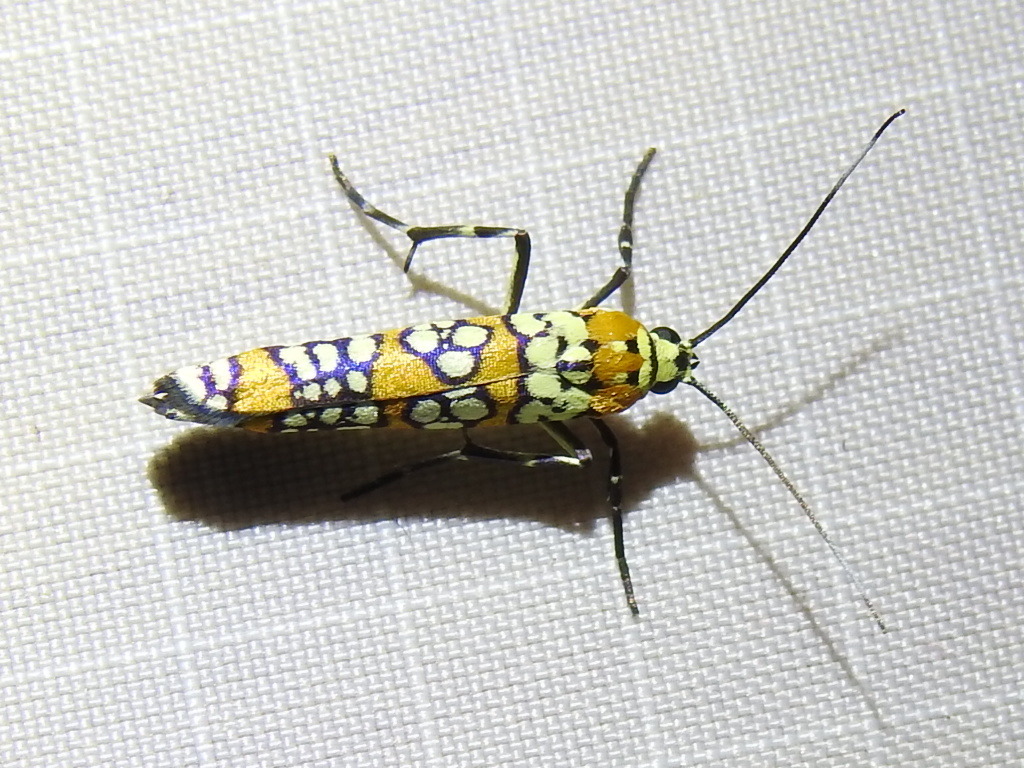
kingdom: Animalia
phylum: Arthropoda
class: Insecta
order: Lepidoptera
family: Attevidae
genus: Atteva
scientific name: Atteva punctella
